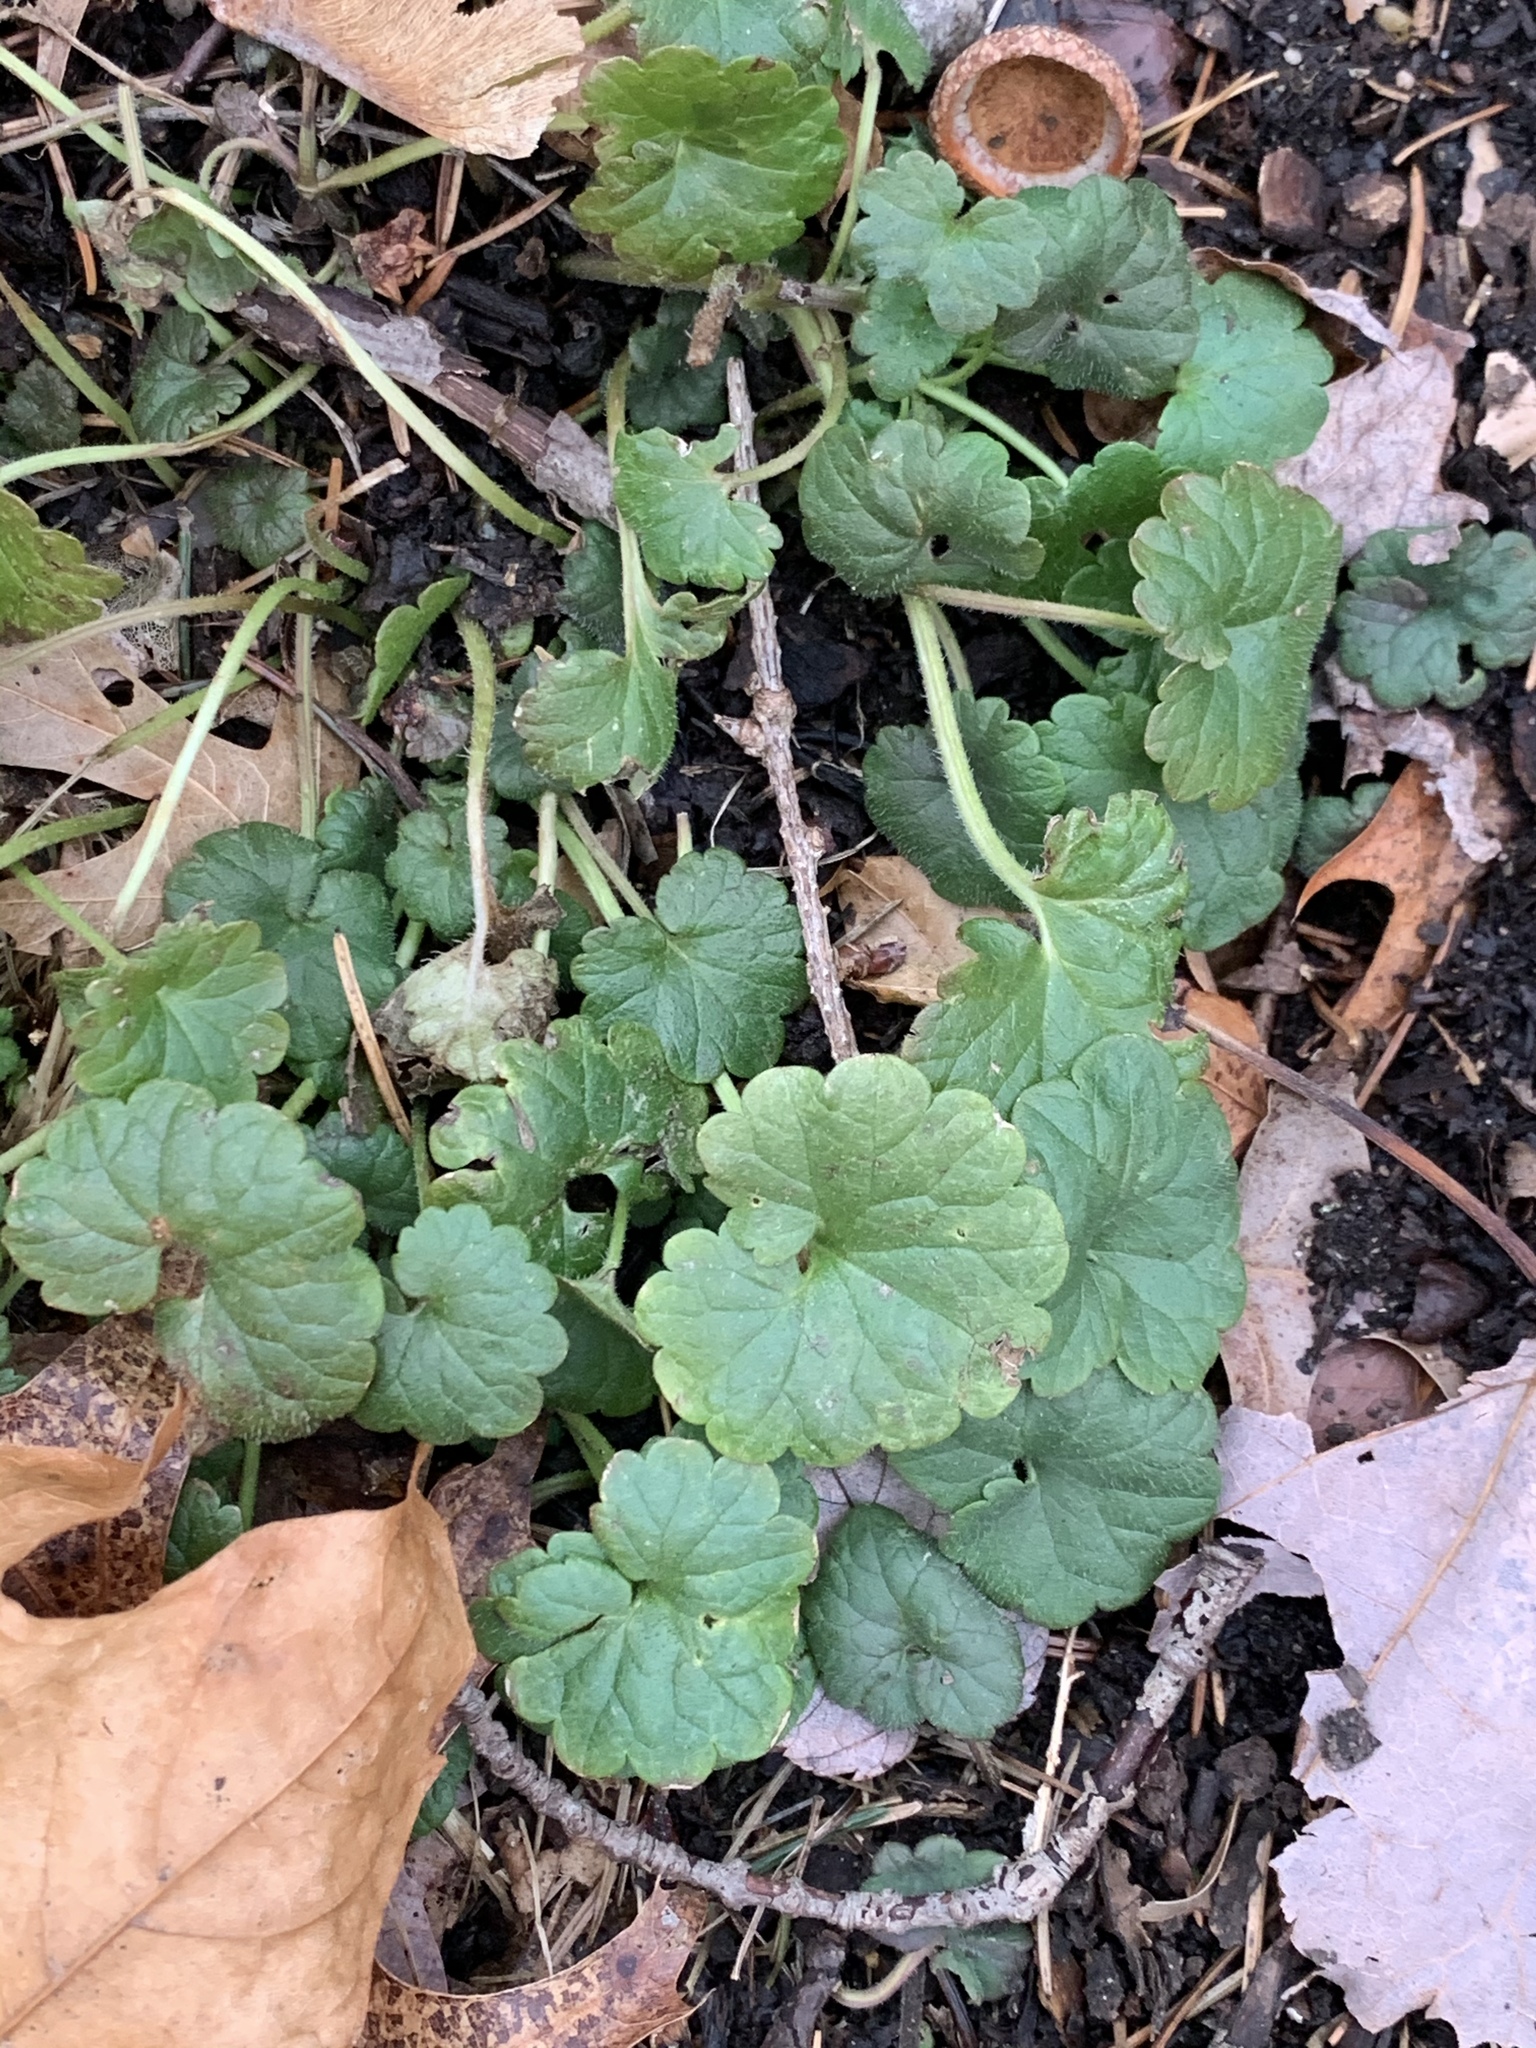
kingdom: Plantae
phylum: Tracheophyta
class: Magnoliopsida
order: Lamiales
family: Lamiaceae
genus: Glechoma
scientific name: Glechoma hederacea
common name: Ground ivy
